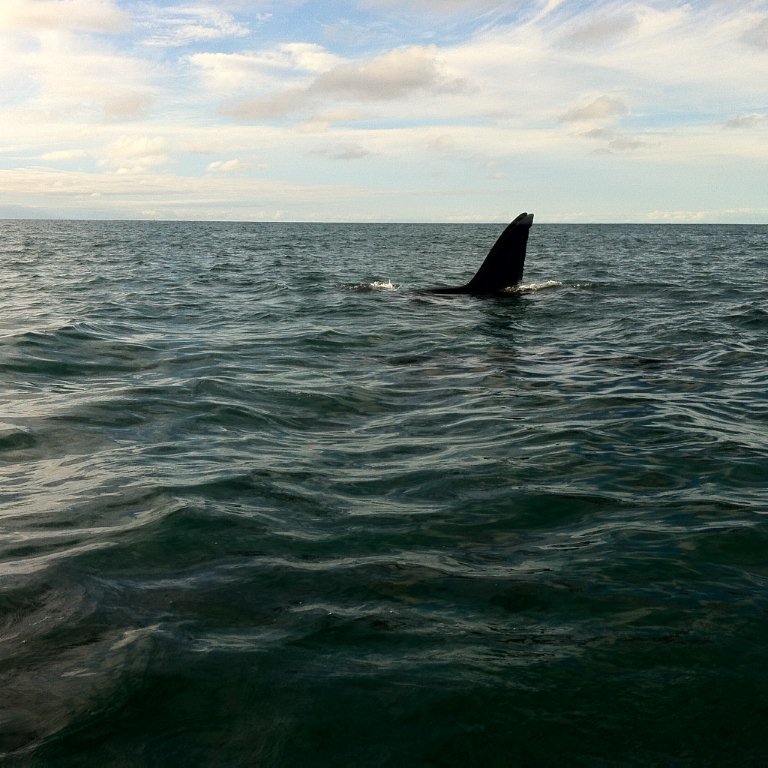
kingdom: Animalia
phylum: Chordata
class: Mammalia
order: Cetacea
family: Delphinidae
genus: Orcinus
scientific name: Orcinus orca
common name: Killer whale
